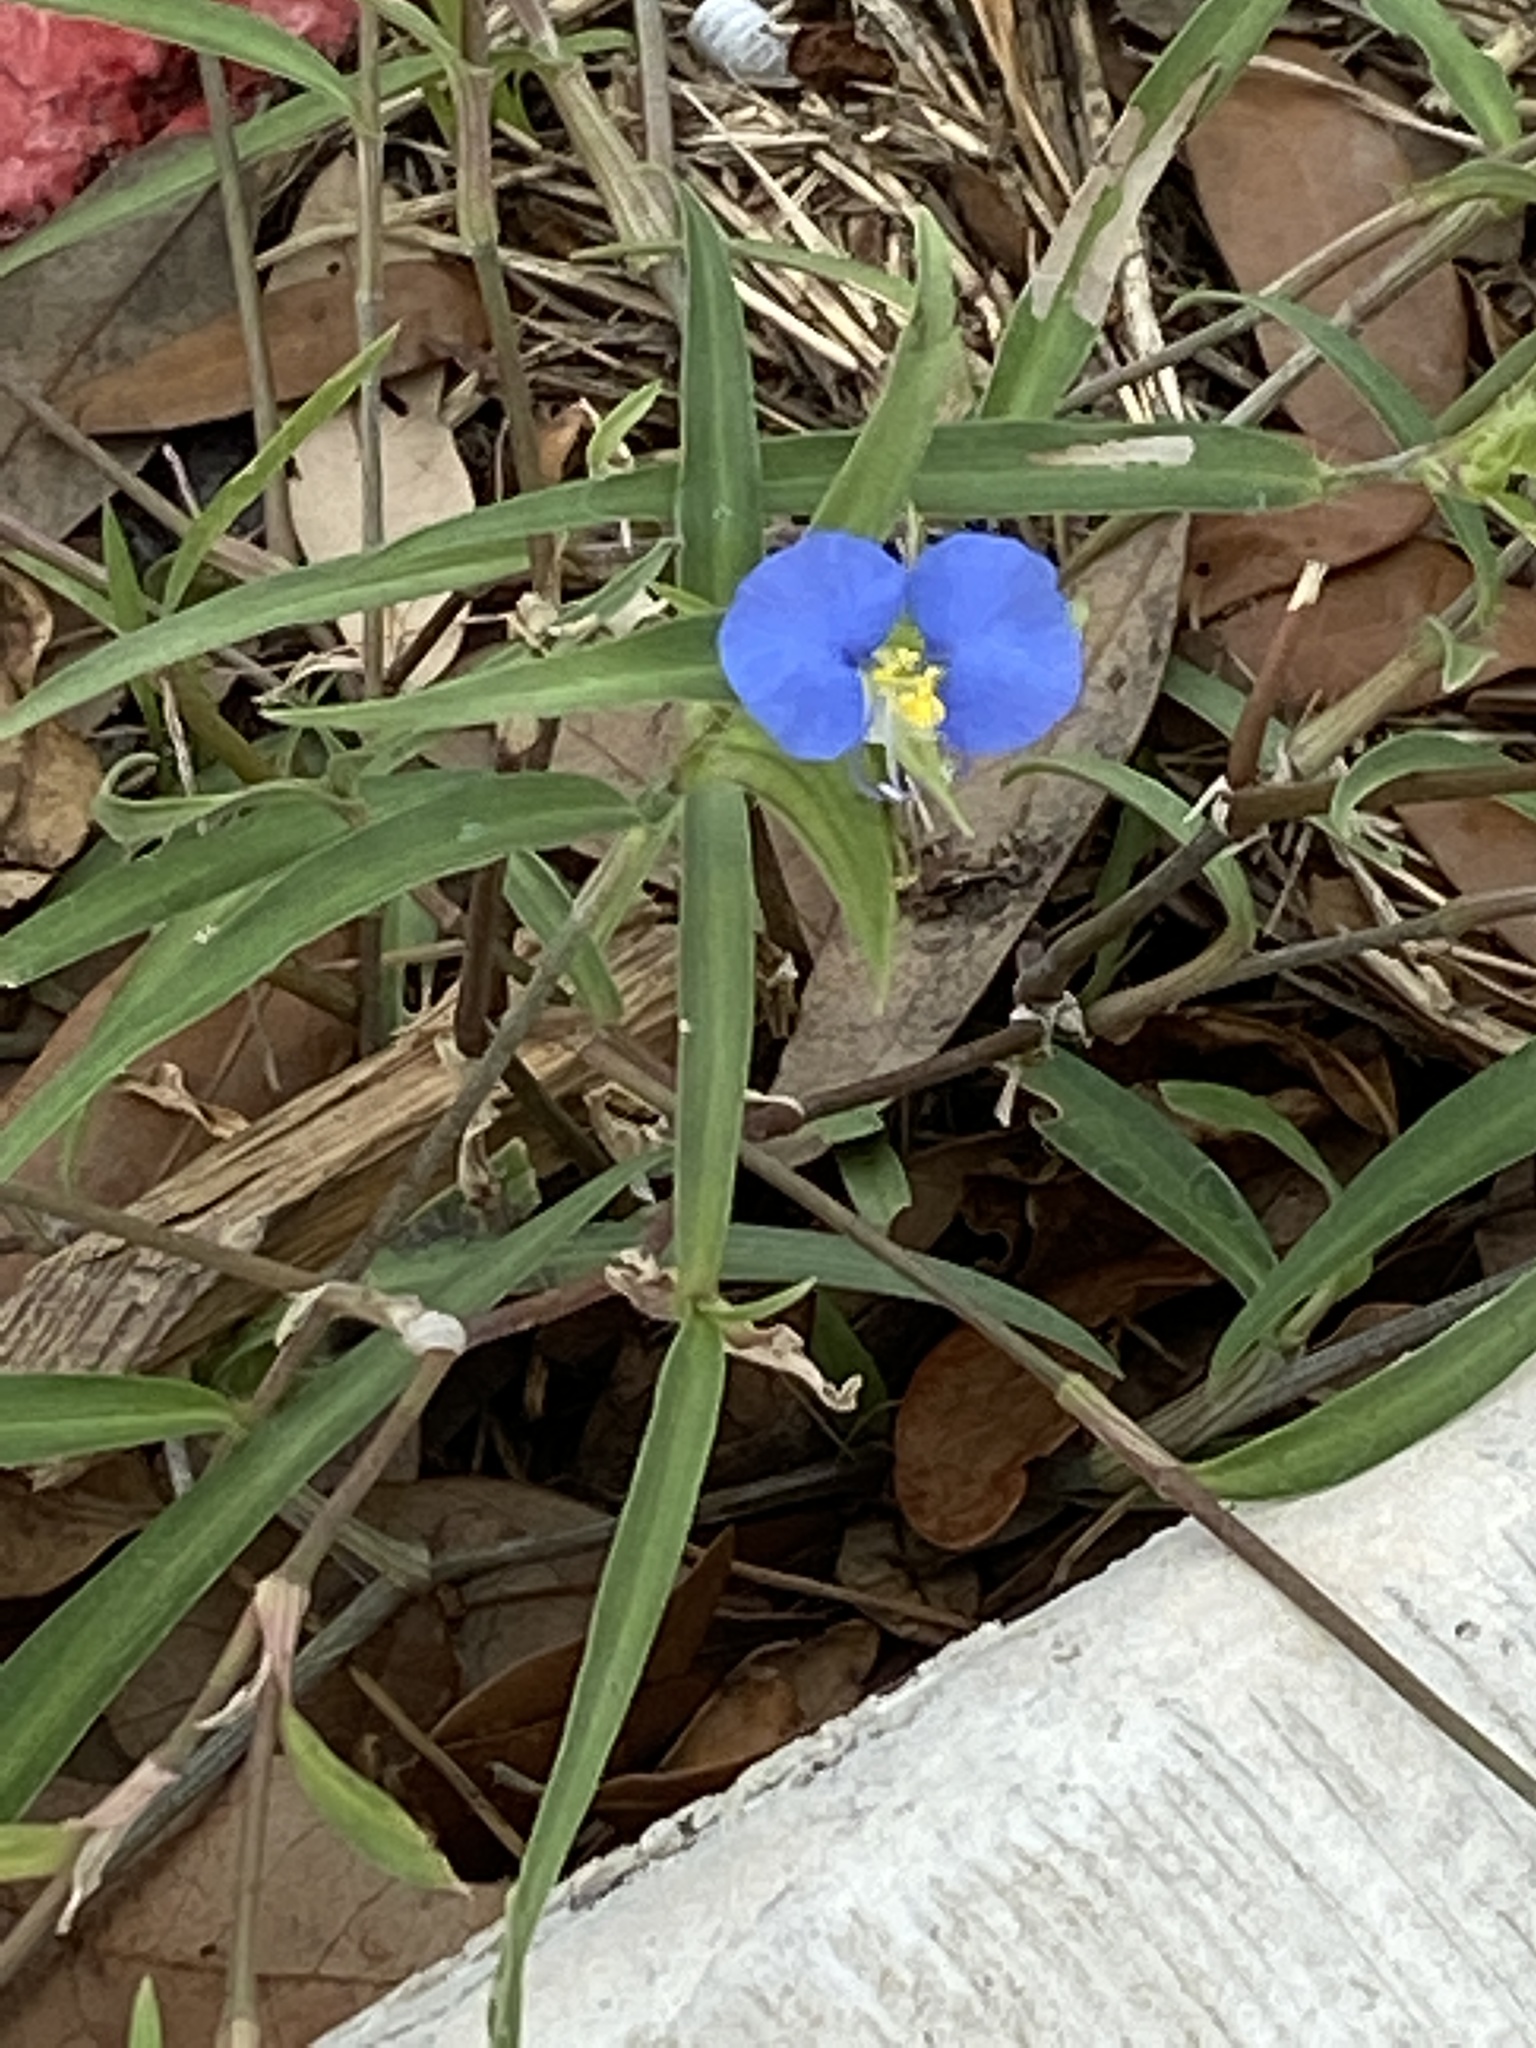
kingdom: Plantae
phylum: Tracheophyta
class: Liliopsida
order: Commelinales
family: Commelinaceae
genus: Commelina
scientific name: Commelina erecta
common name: Blousel blommetjie
